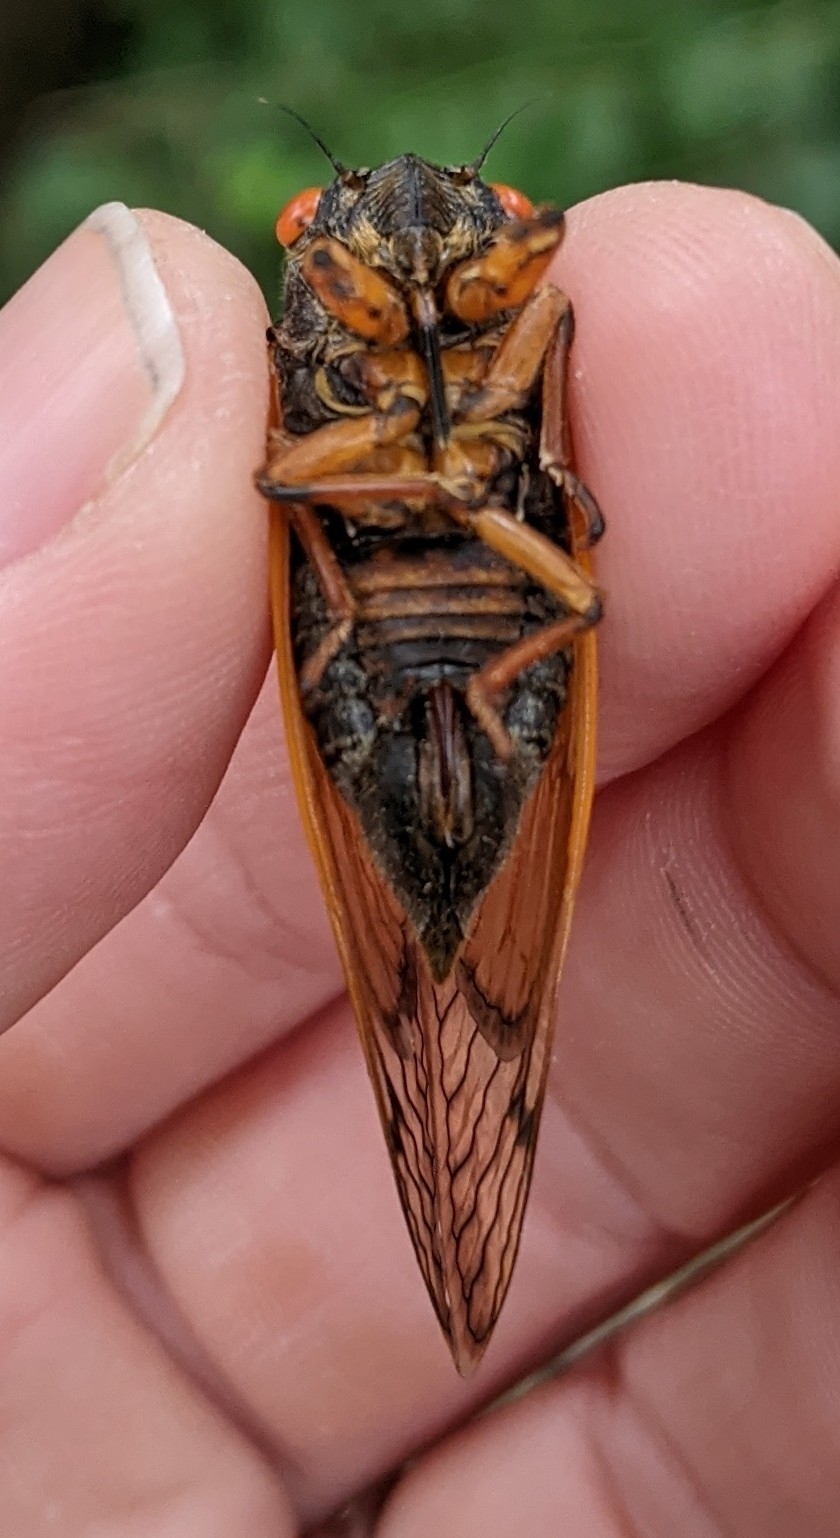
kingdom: Animalia
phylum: Arthropoda
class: Insecta
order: Hemiptera
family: Cicadidae
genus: Magicicada
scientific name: Magicicada
